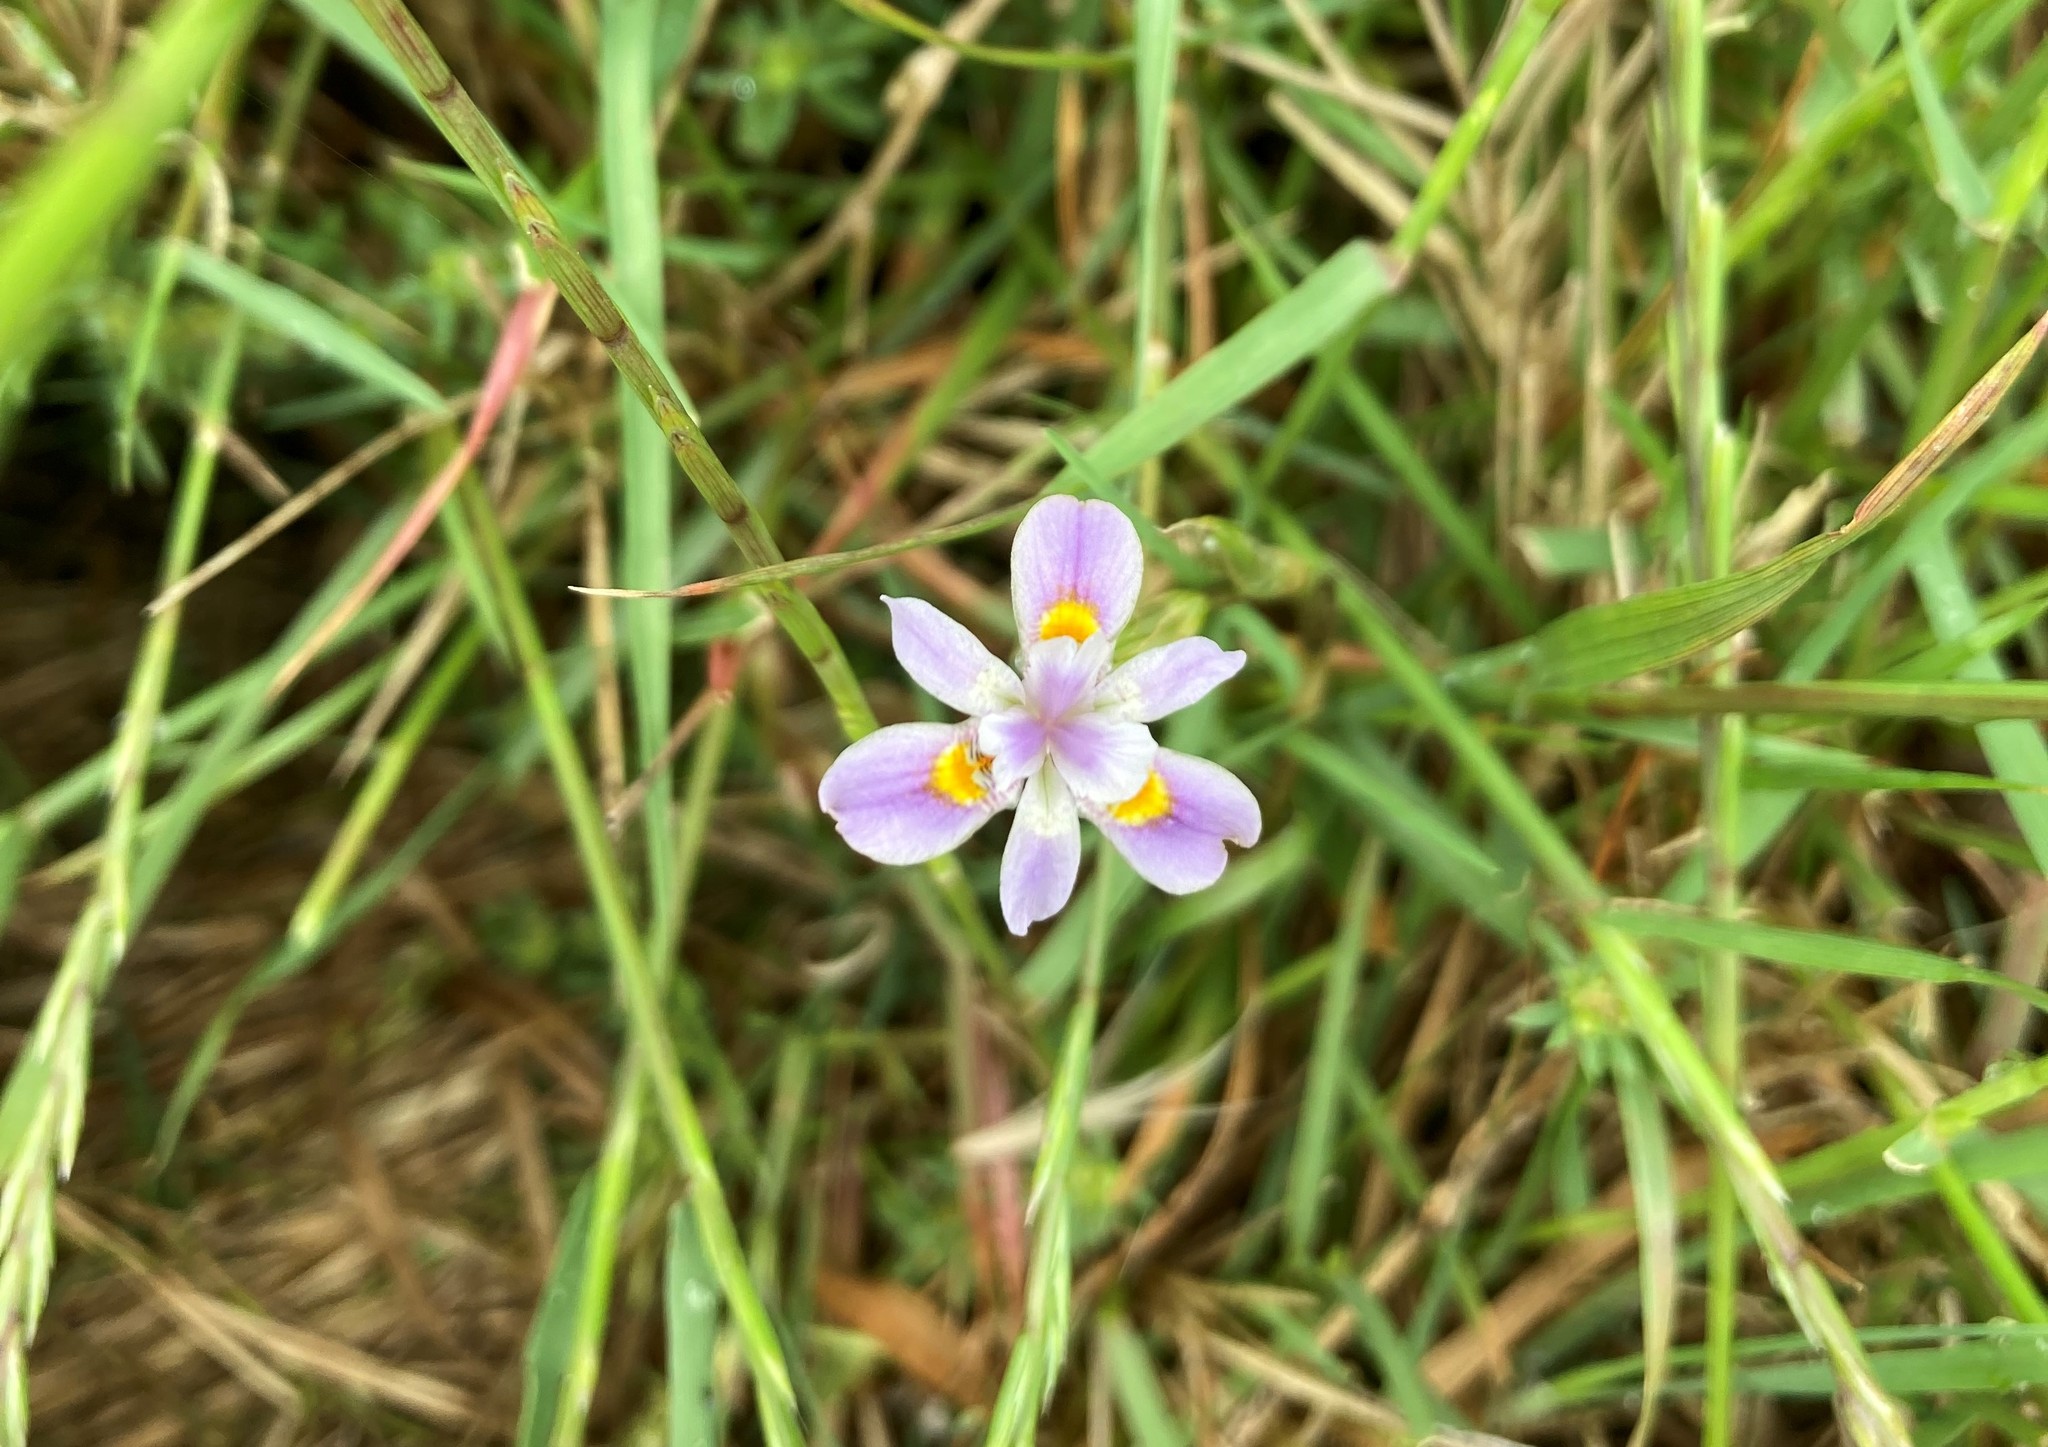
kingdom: Plantae
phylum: Tracheophyta
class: Liliopsida
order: Asparagales
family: Iridaceae
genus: Moraea
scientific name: Moraea setifolia
